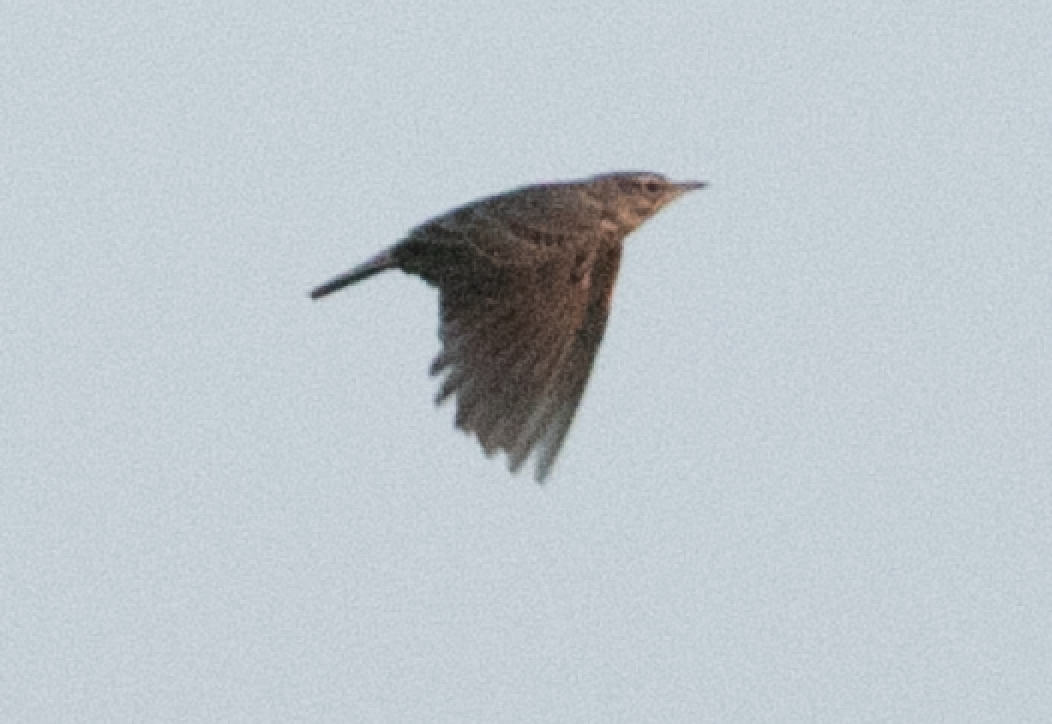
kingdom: Animalia
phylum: Chordata
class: Aves
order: Passeriformes
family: Alaudidae
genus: Galerida
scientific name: Galerida cristata
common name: Crested lark
